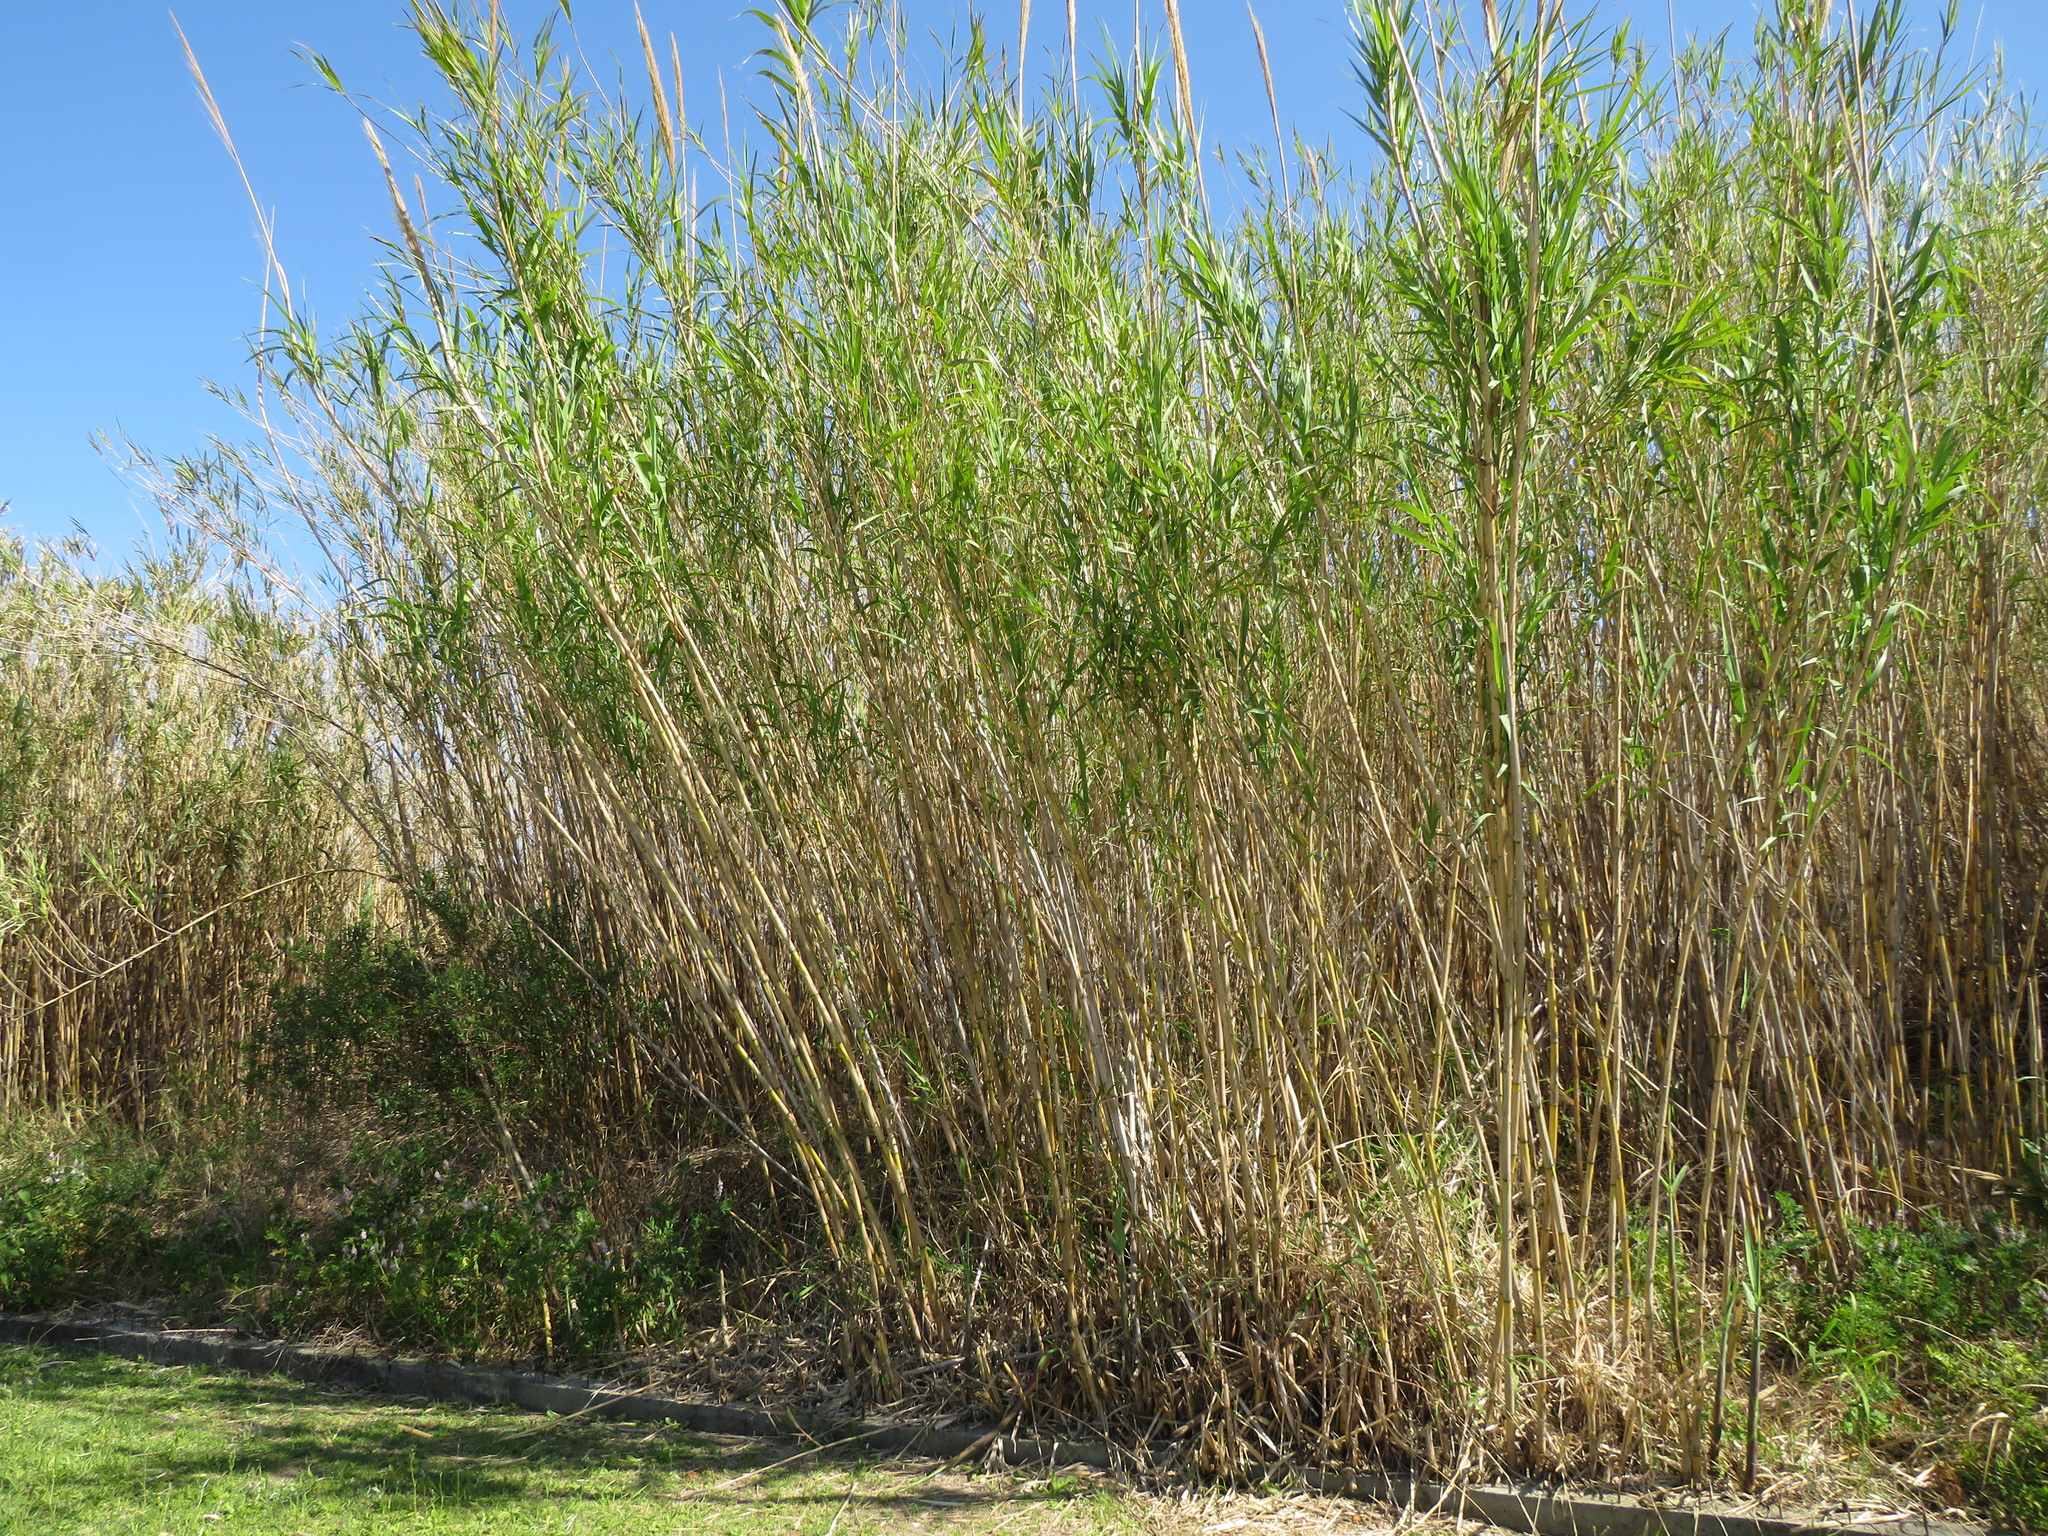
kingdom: Plantae
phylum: Tracheophyta
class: Liliopsida
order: Poales
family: Poaceae
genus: Arundo
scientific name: Arundo donax
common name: Giant reed
